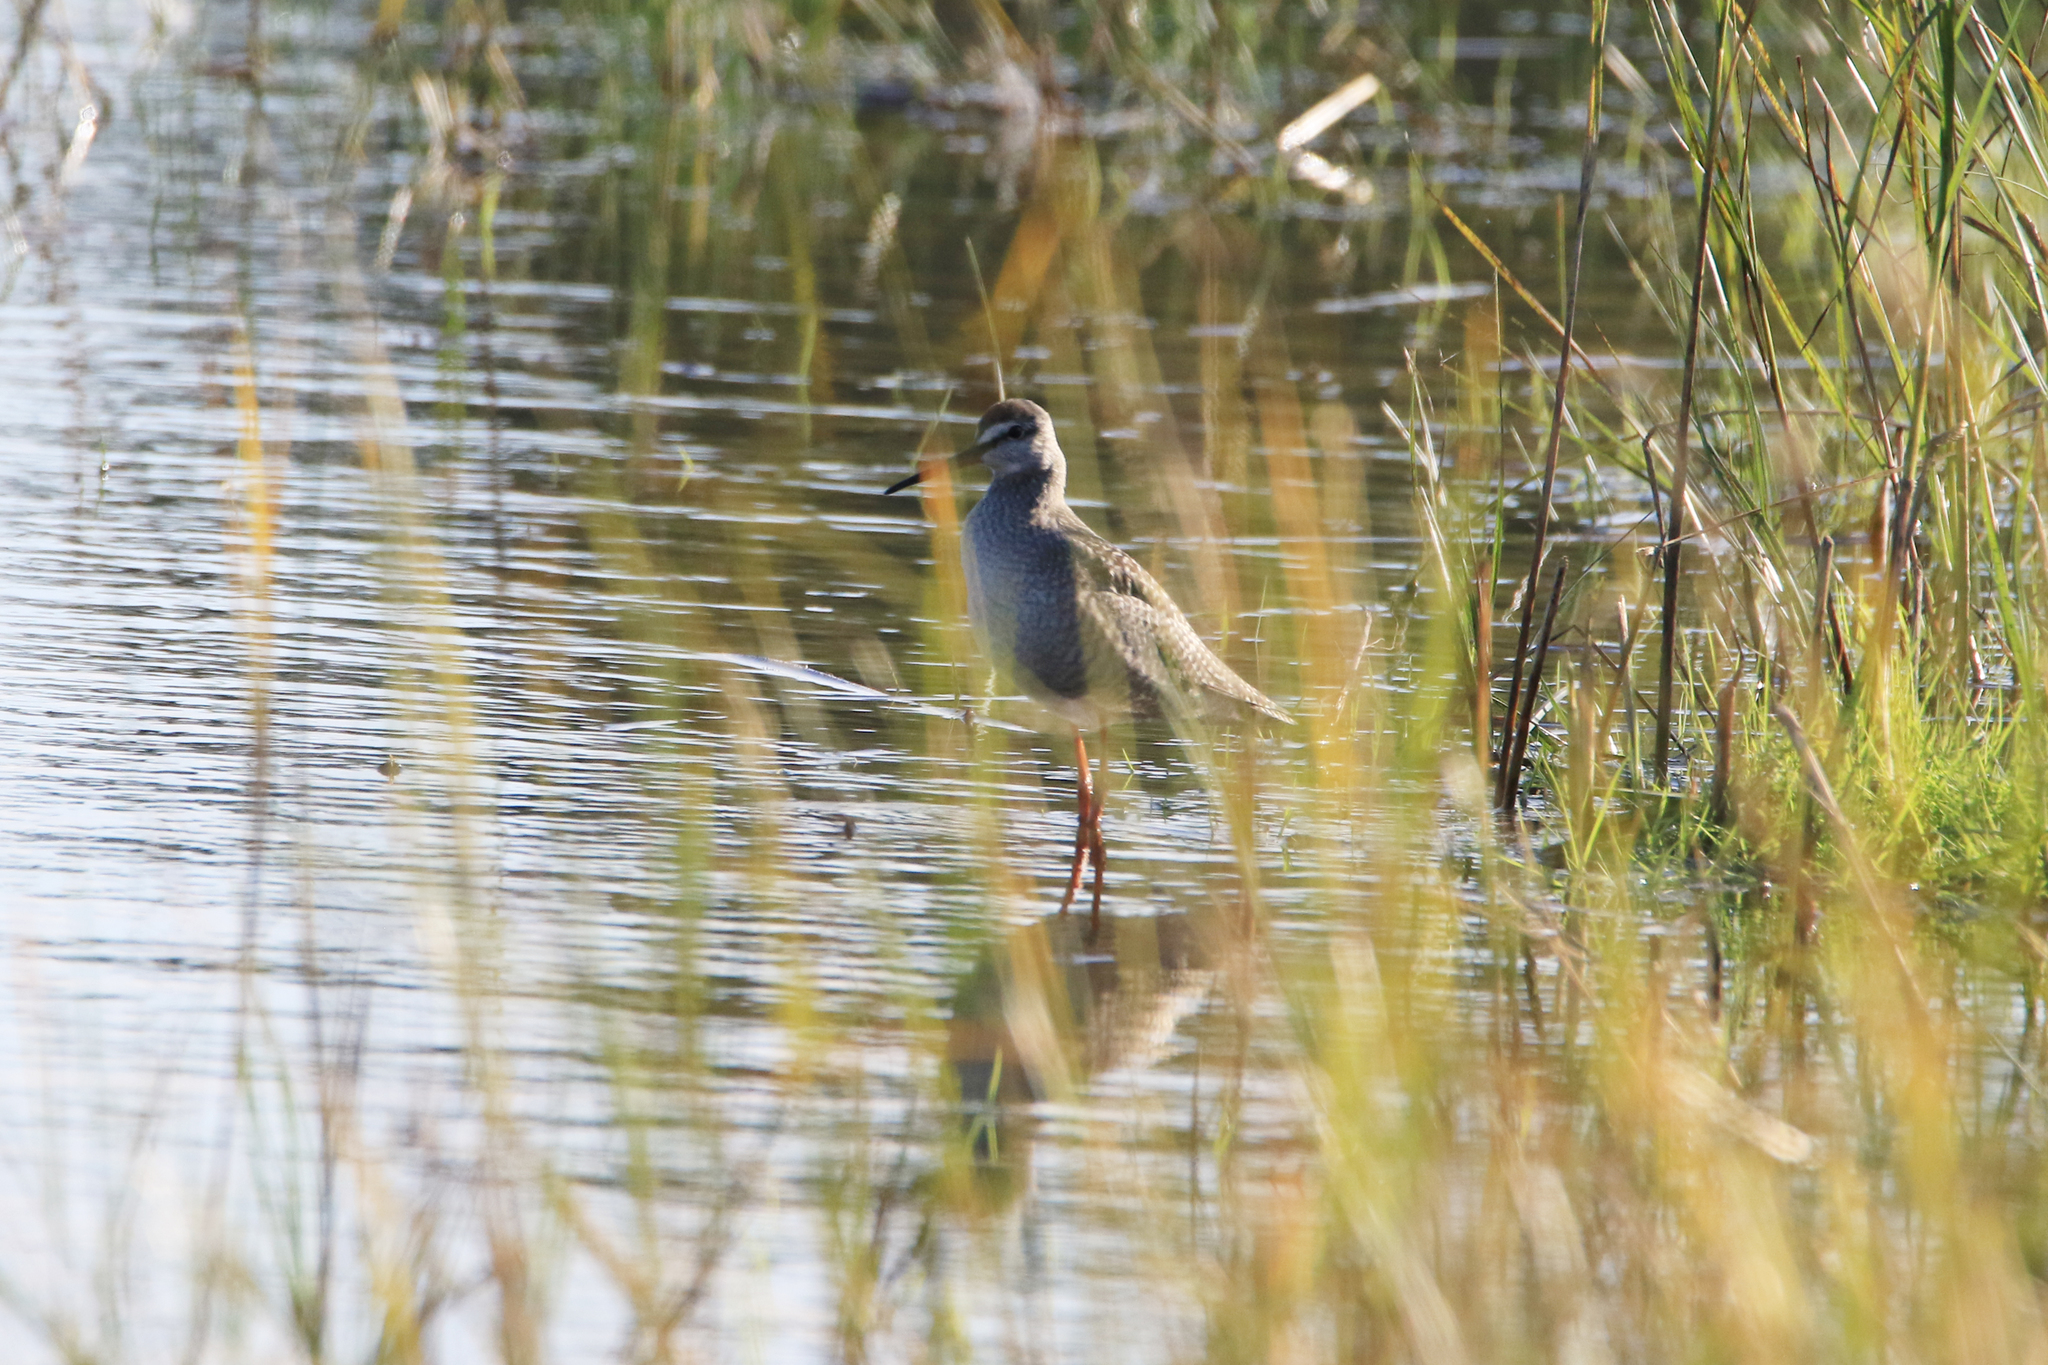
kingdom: Animalia
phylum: Chordata
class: Aves
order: Charadriiformes
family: Scolopacidae
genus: Tringa
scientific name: Tringa erythropus
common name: Spotted redshank
